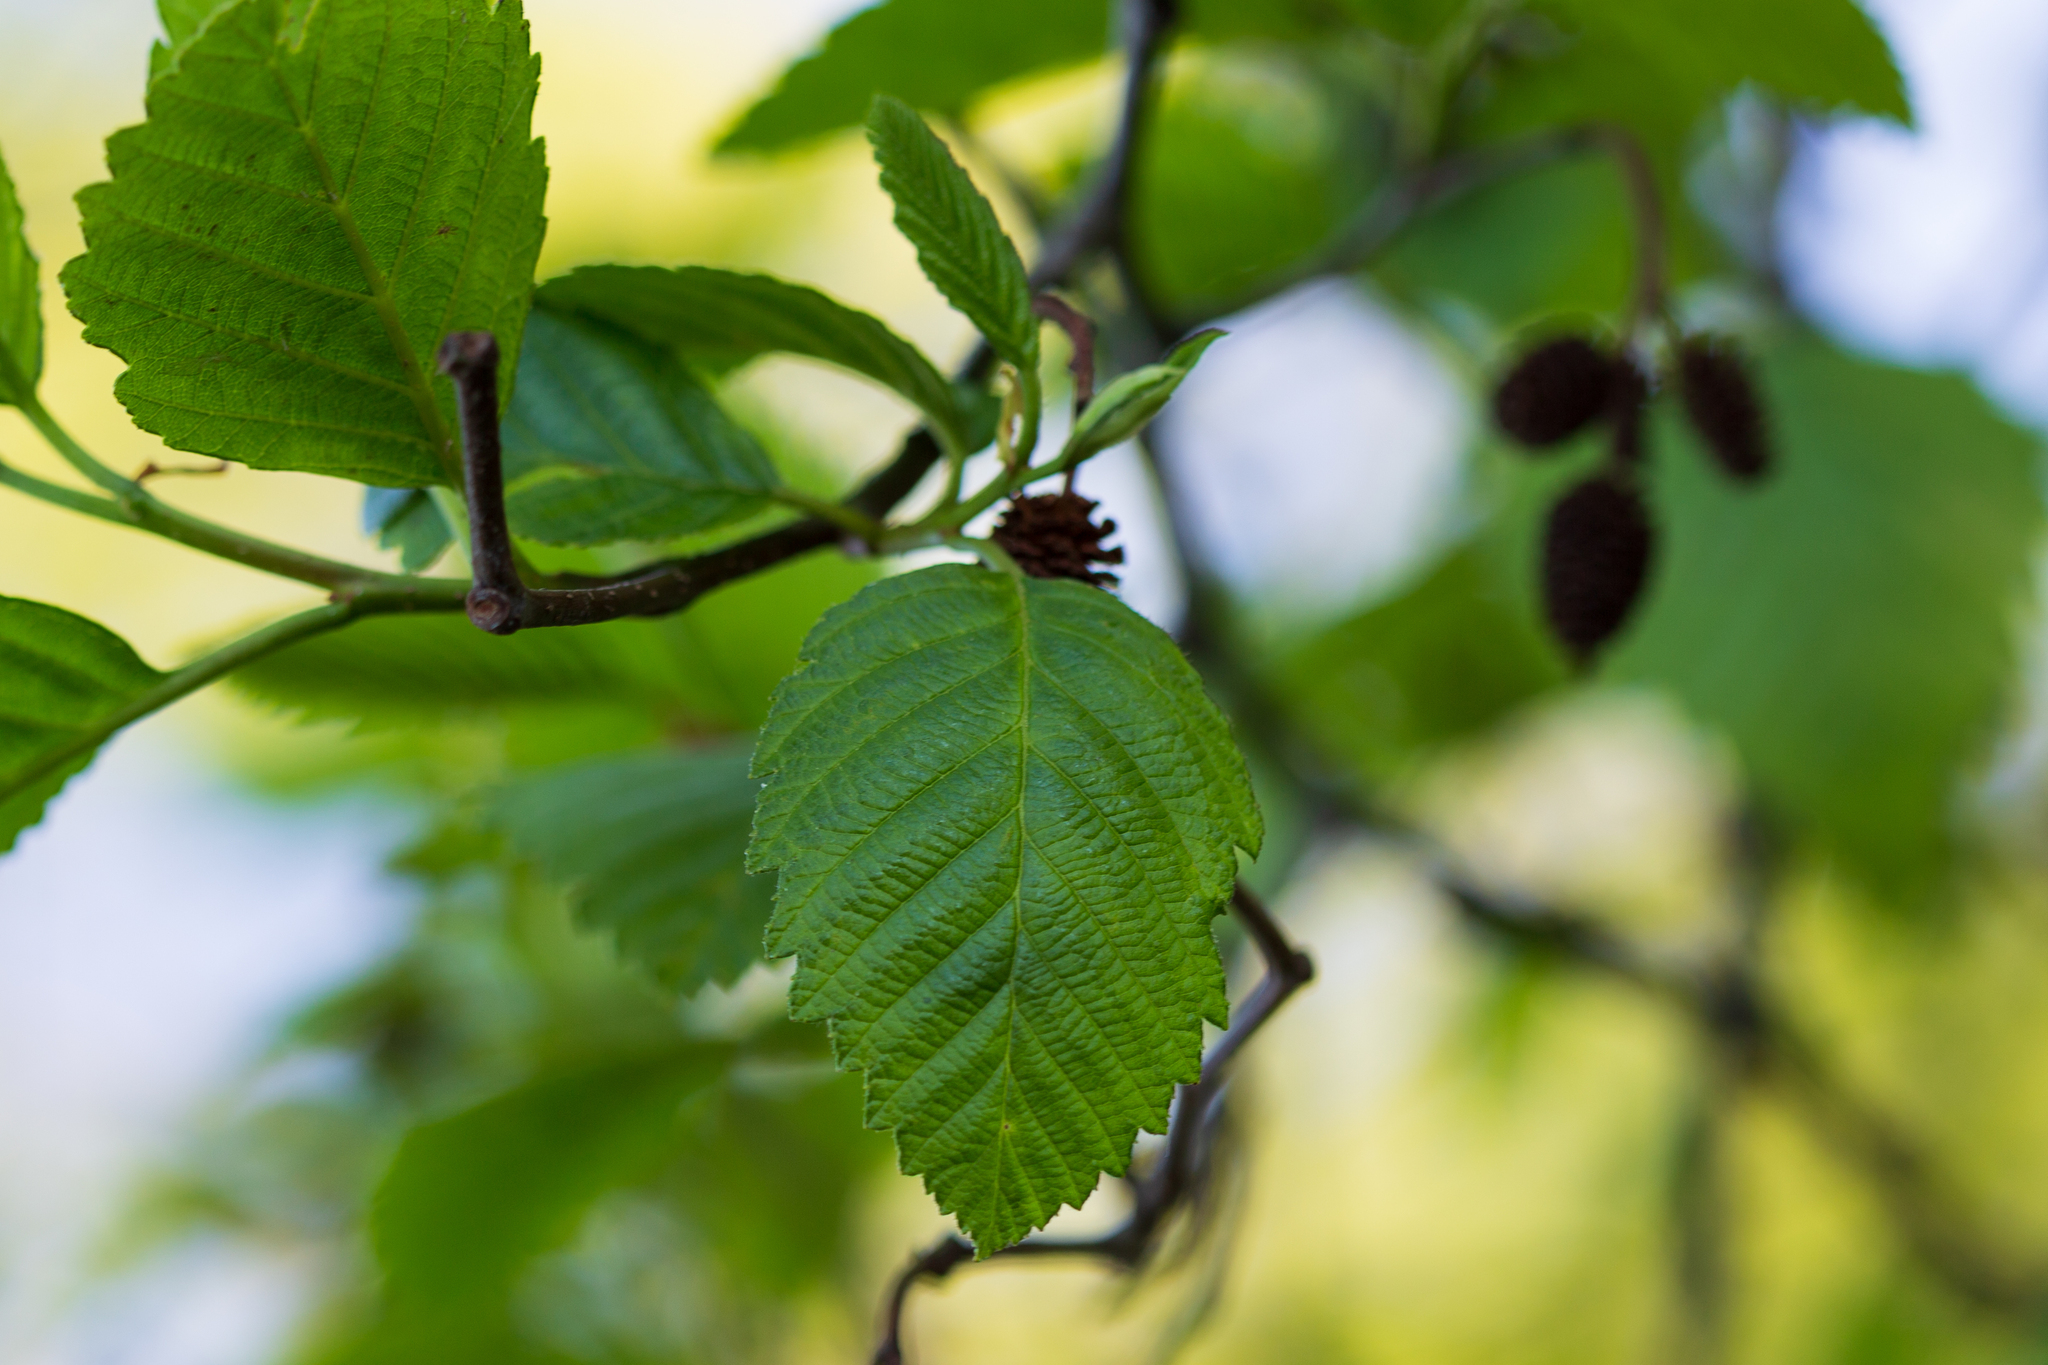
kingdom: Plantae
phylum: Tracheophyta
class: Magnoliopsida
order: Fagales
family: Betulaceae
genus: Alnus
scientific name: Alnus rubra
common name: Red alder
